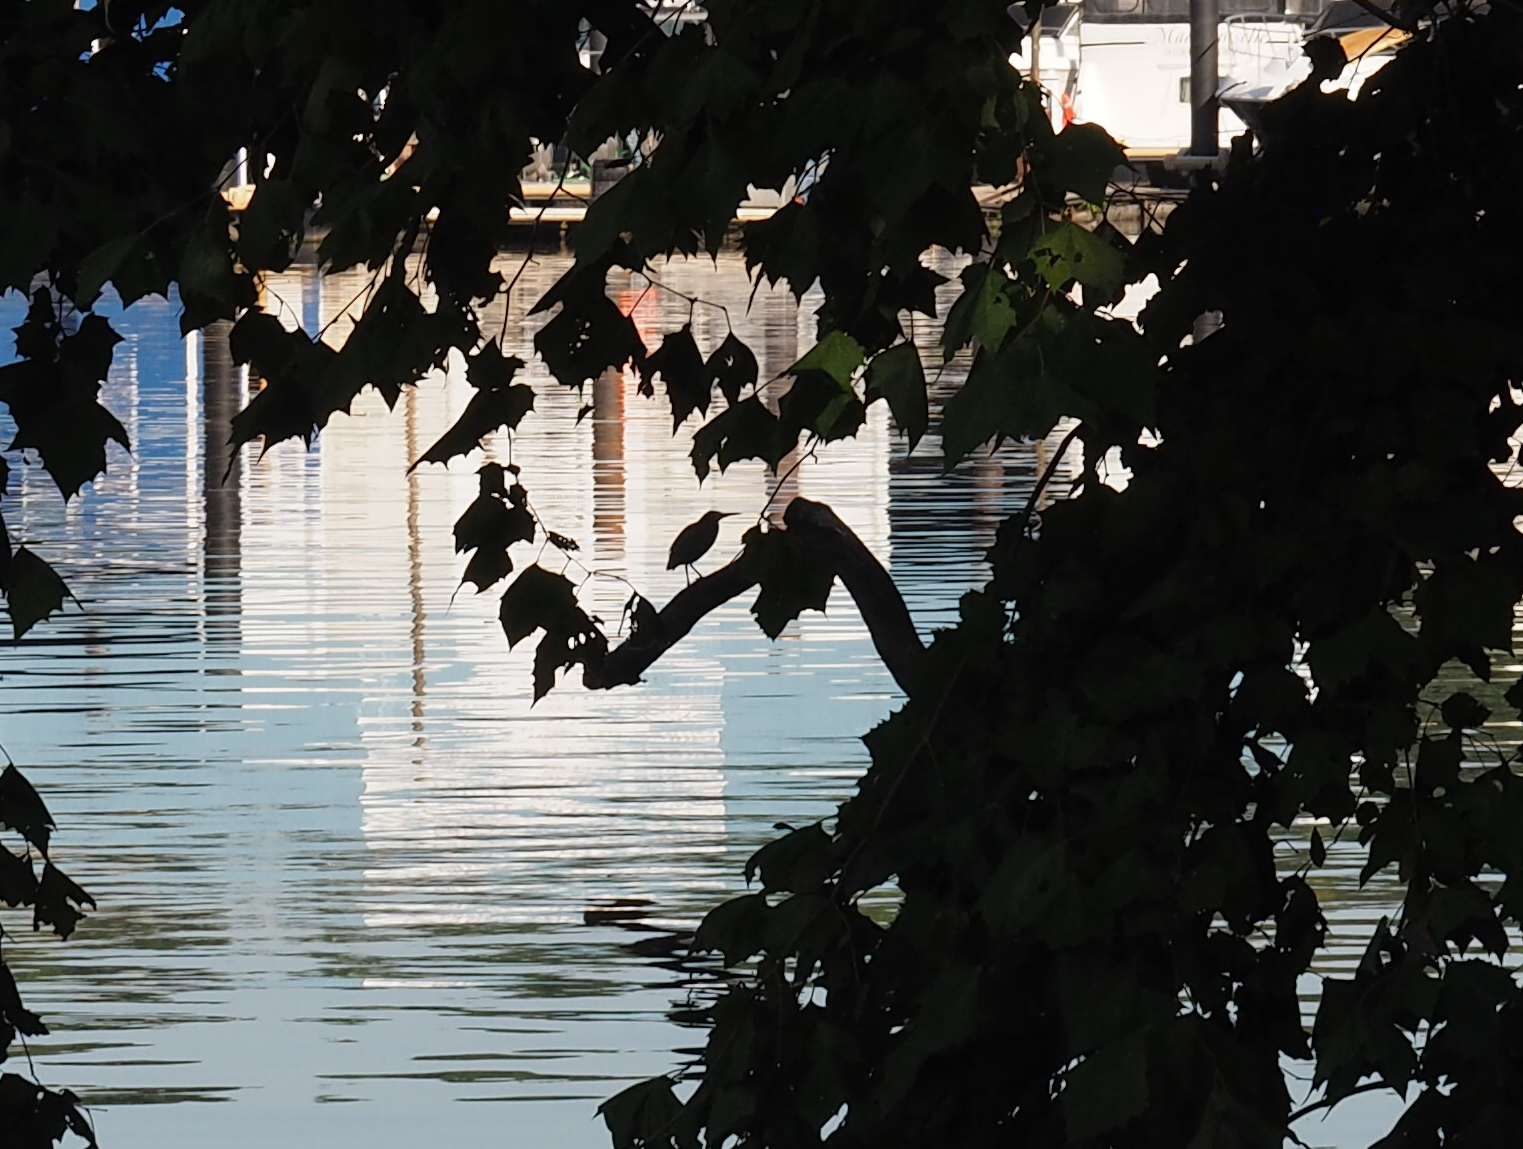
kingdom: Animalia
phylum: Chordata
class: Aves
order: Pelecaniformes
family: Ardeidae
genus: Butorides
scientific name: Butorides virescens
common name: Green heron
